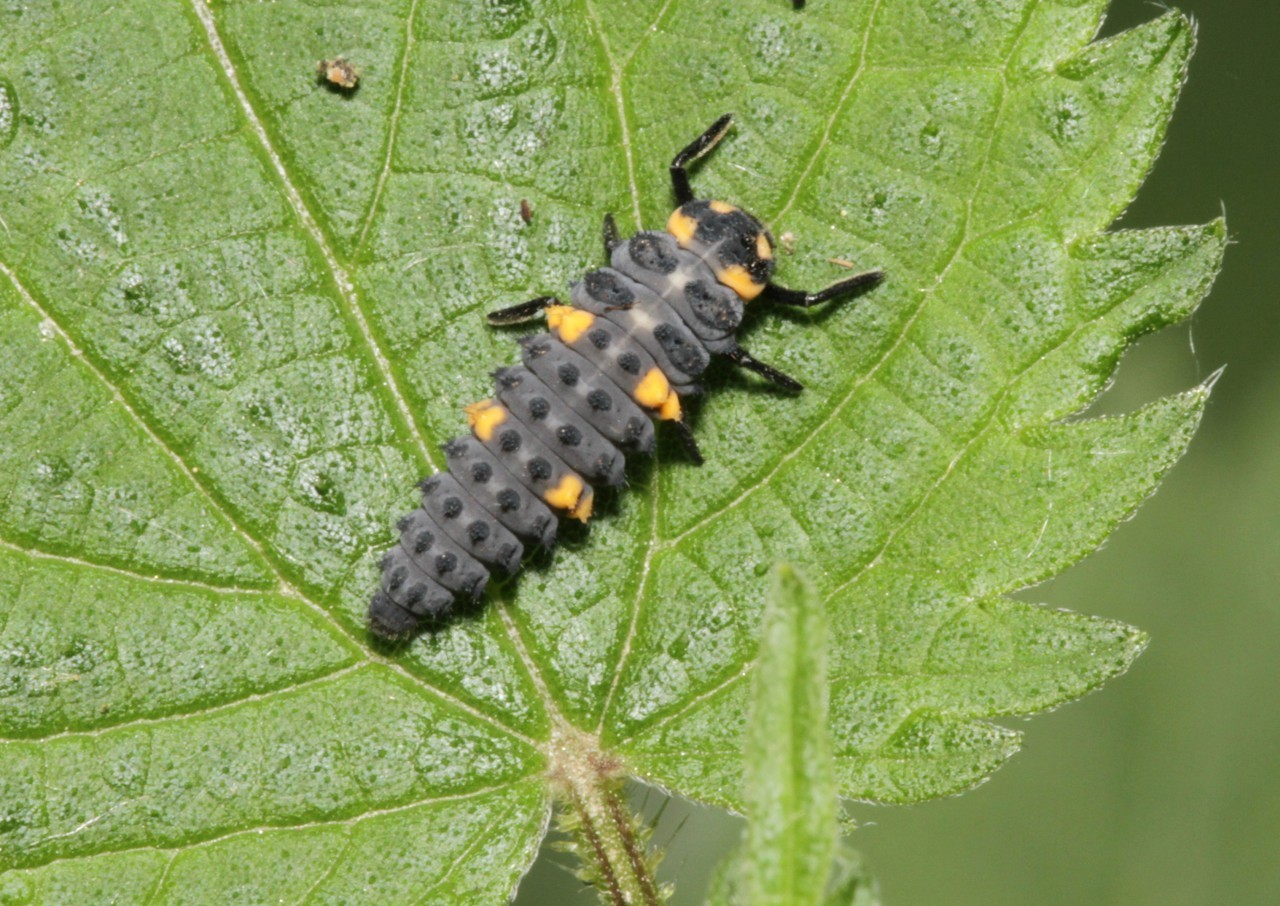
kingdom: Animalia
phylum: Arthropoda
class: Insecta
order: Coleoptera
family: Coccinellidae
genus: Coccinella
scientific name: Coccinella septempunctata
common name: Sevenspotted lady beetle
